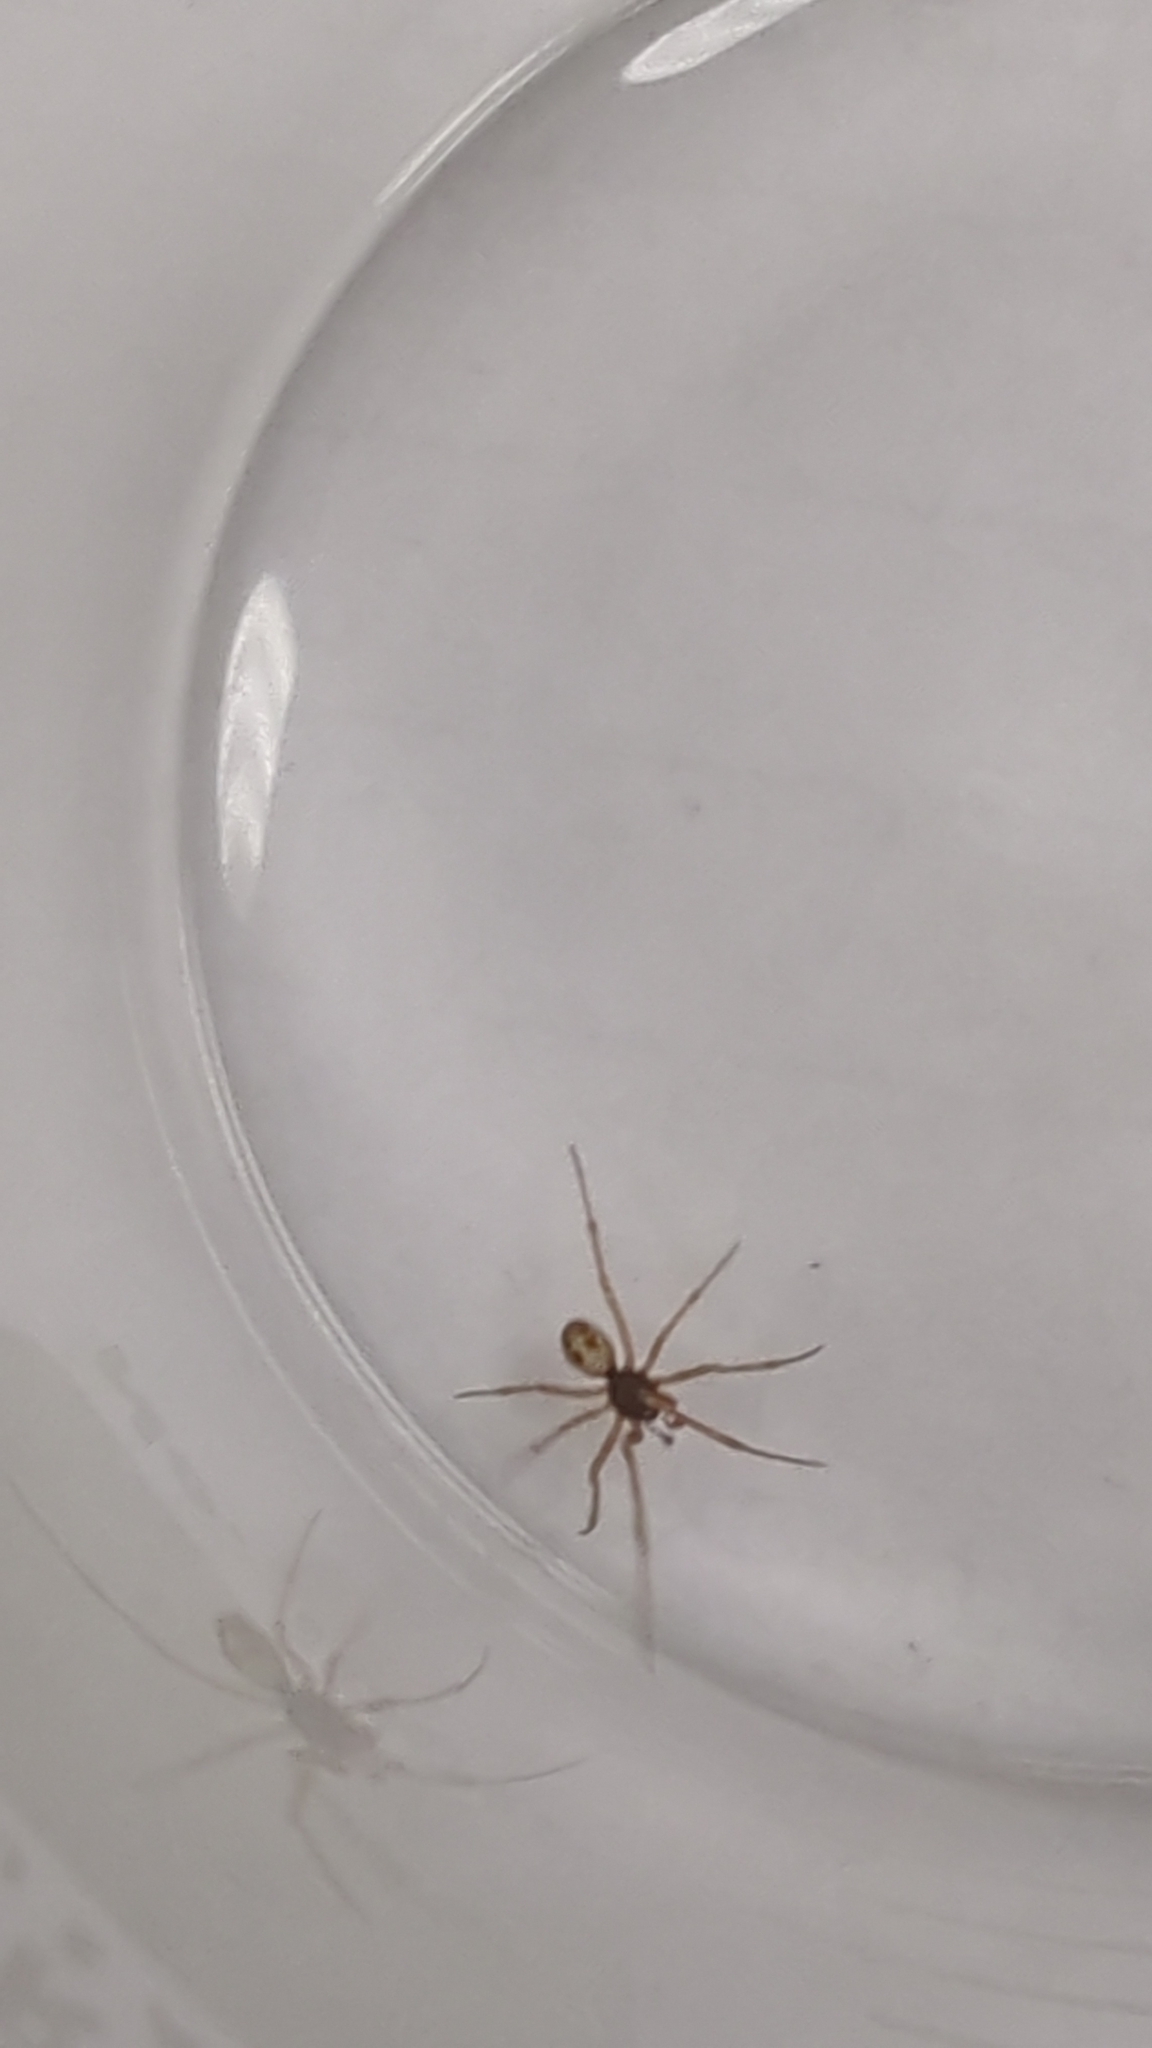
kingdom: Animalia
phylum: Arthropoda
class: Arachnida
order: Araneae
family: Theridiidae
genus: Steatoda
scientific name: Steatoda triangulosa
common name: Triangulate bud spider
